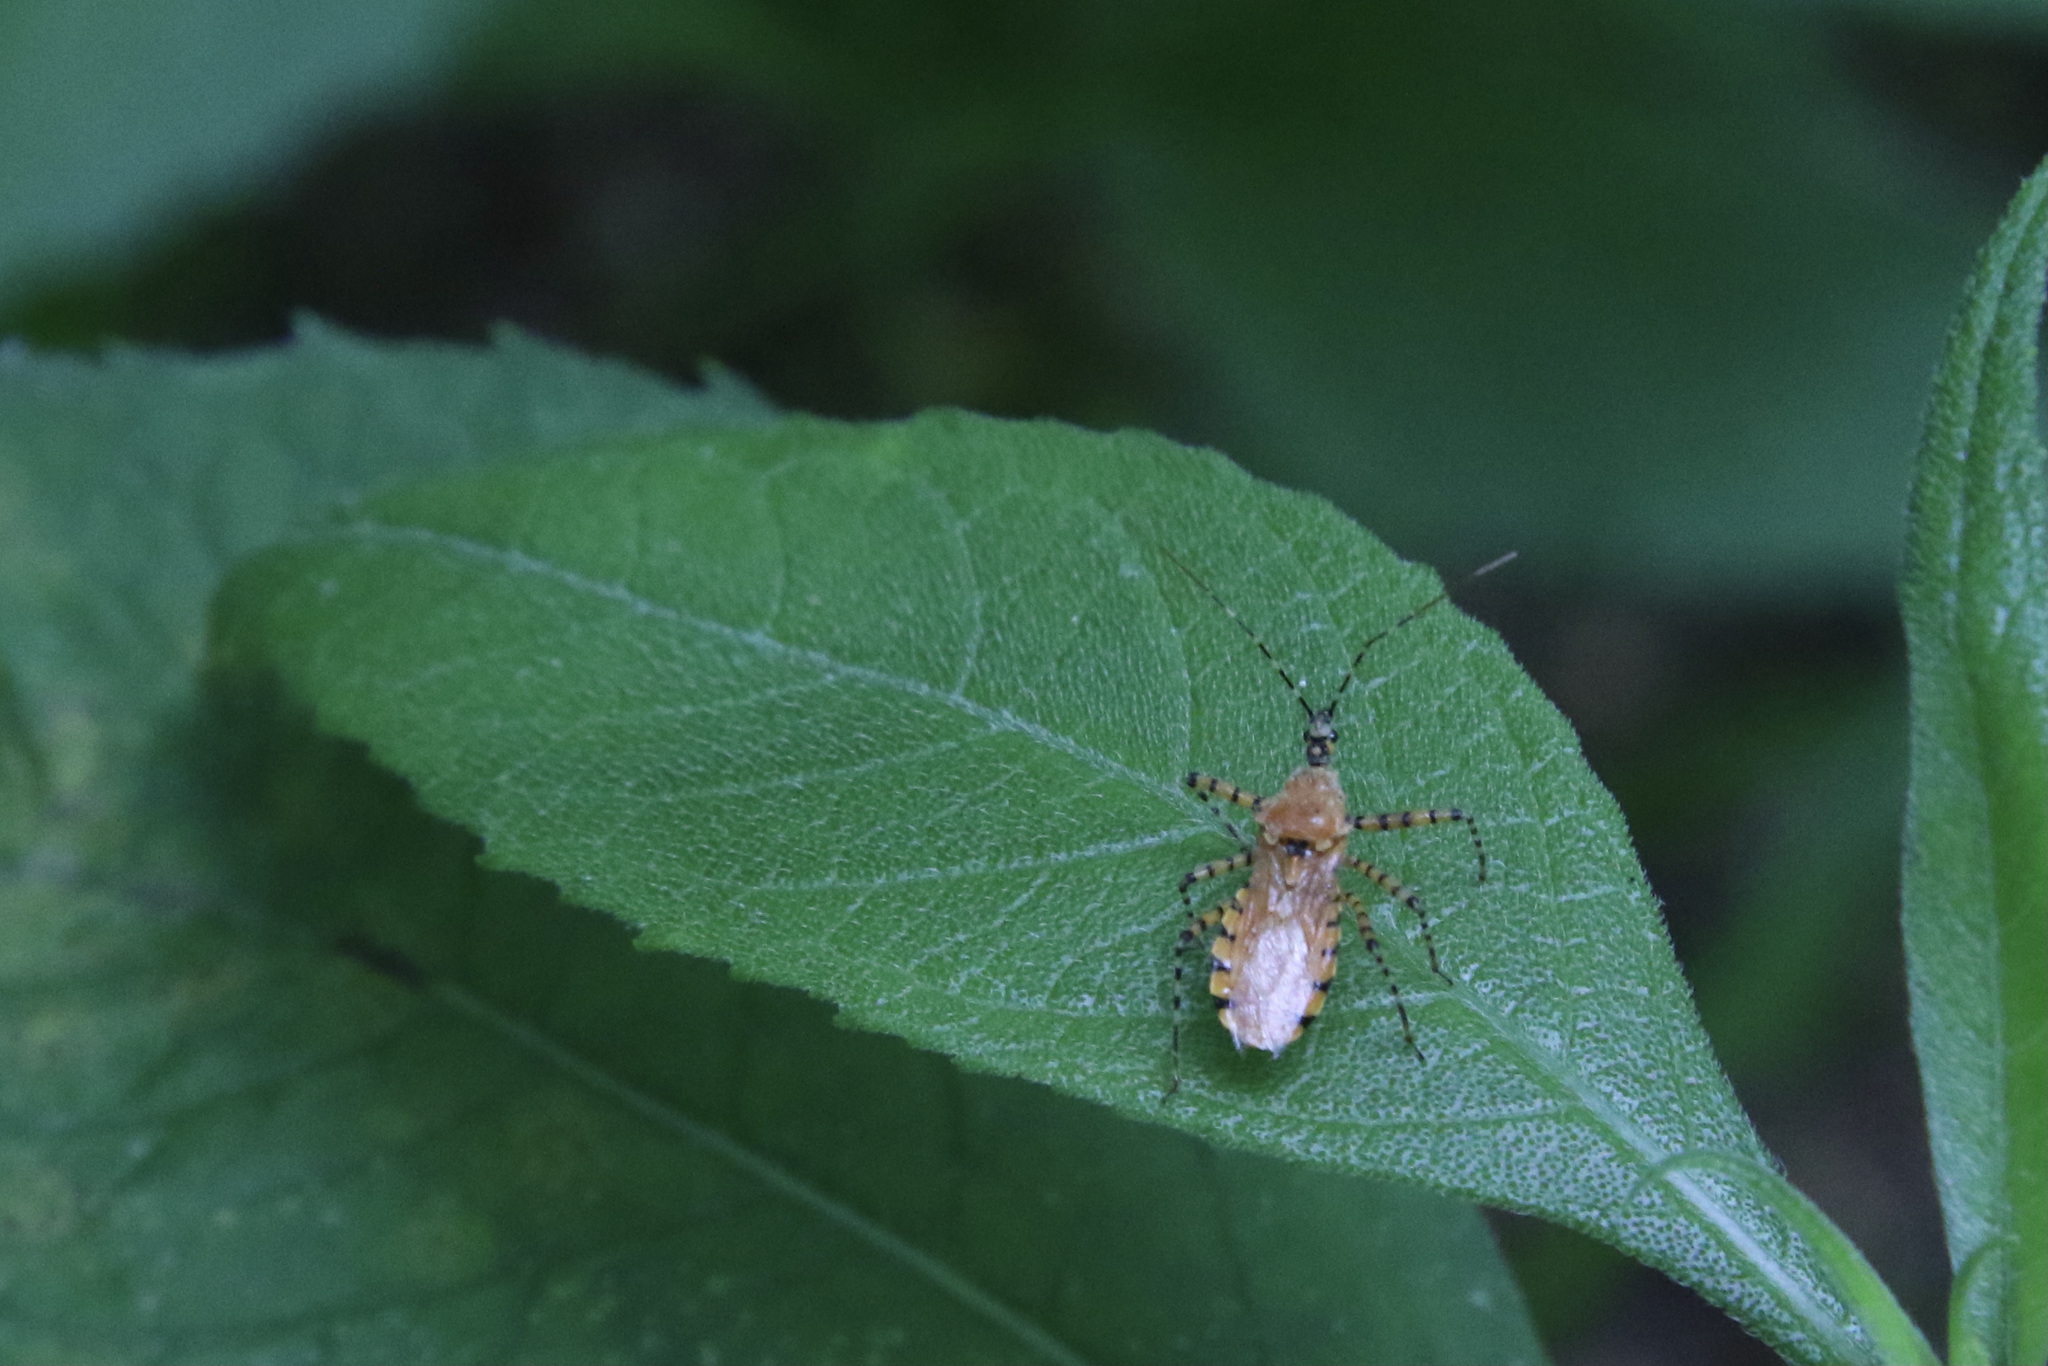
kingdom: Animalia
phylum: Arthropoda
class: Insecta
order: Hemiptera
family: Reduviidae
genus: Pselliopus
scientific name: Pselliopus barberi
